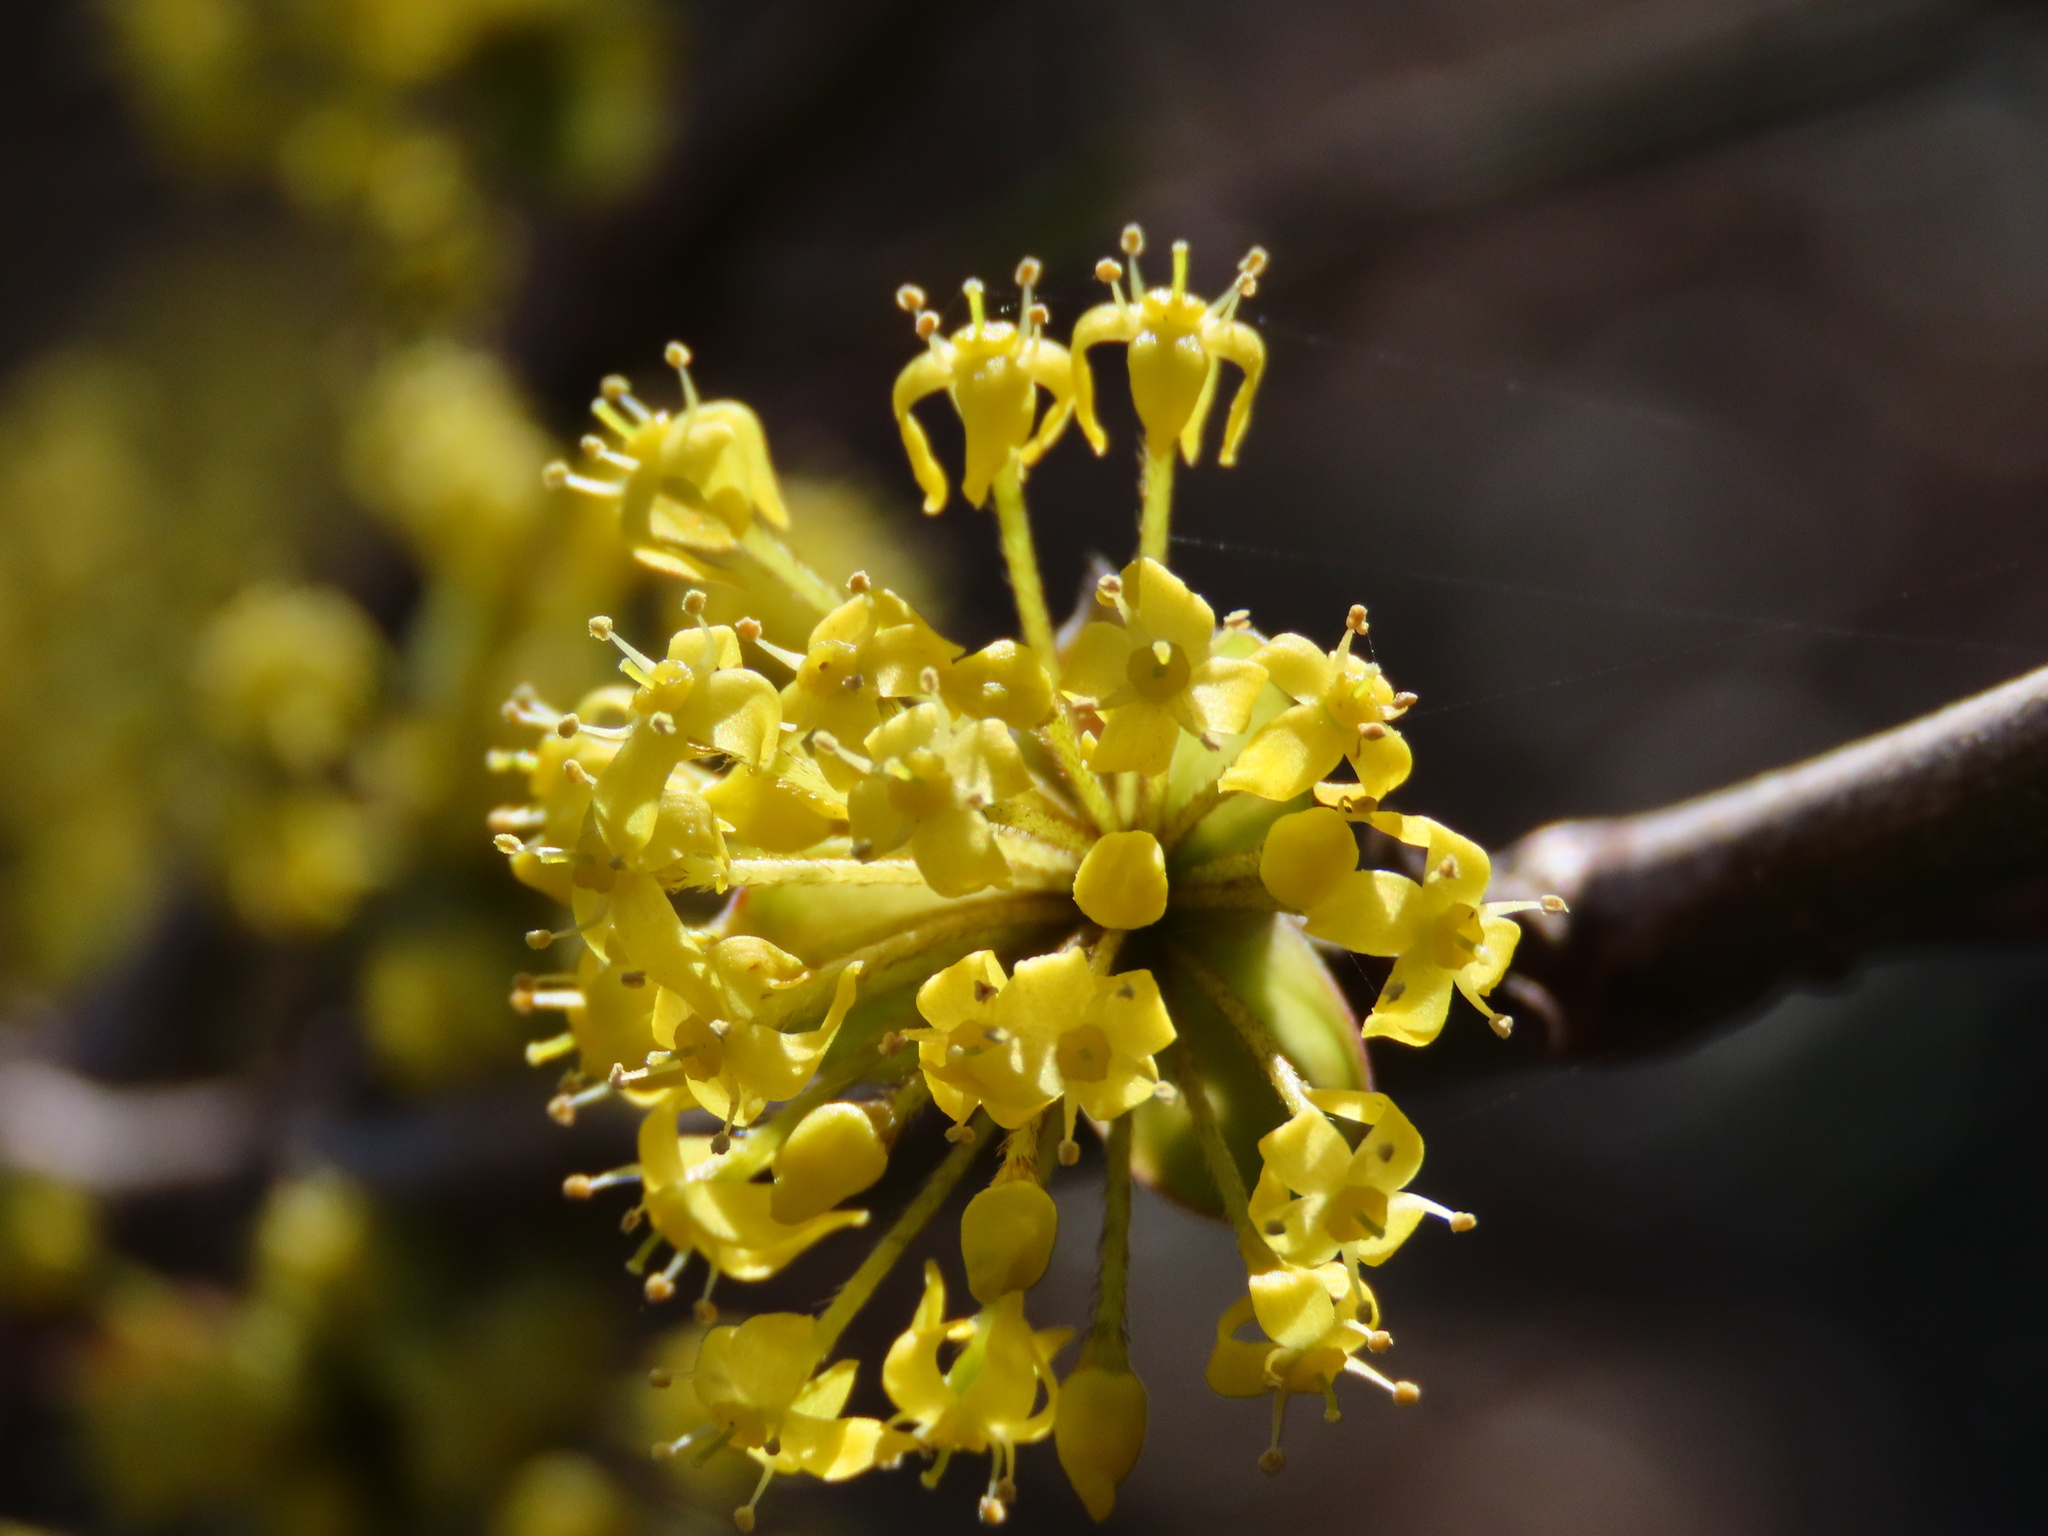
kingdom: Plantae
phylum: Tracheophyta
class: Magnoliopsida
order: Cornales
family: Cornaceae
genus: Cornus
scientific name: Cornus mas
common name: Cornelian-cherry
